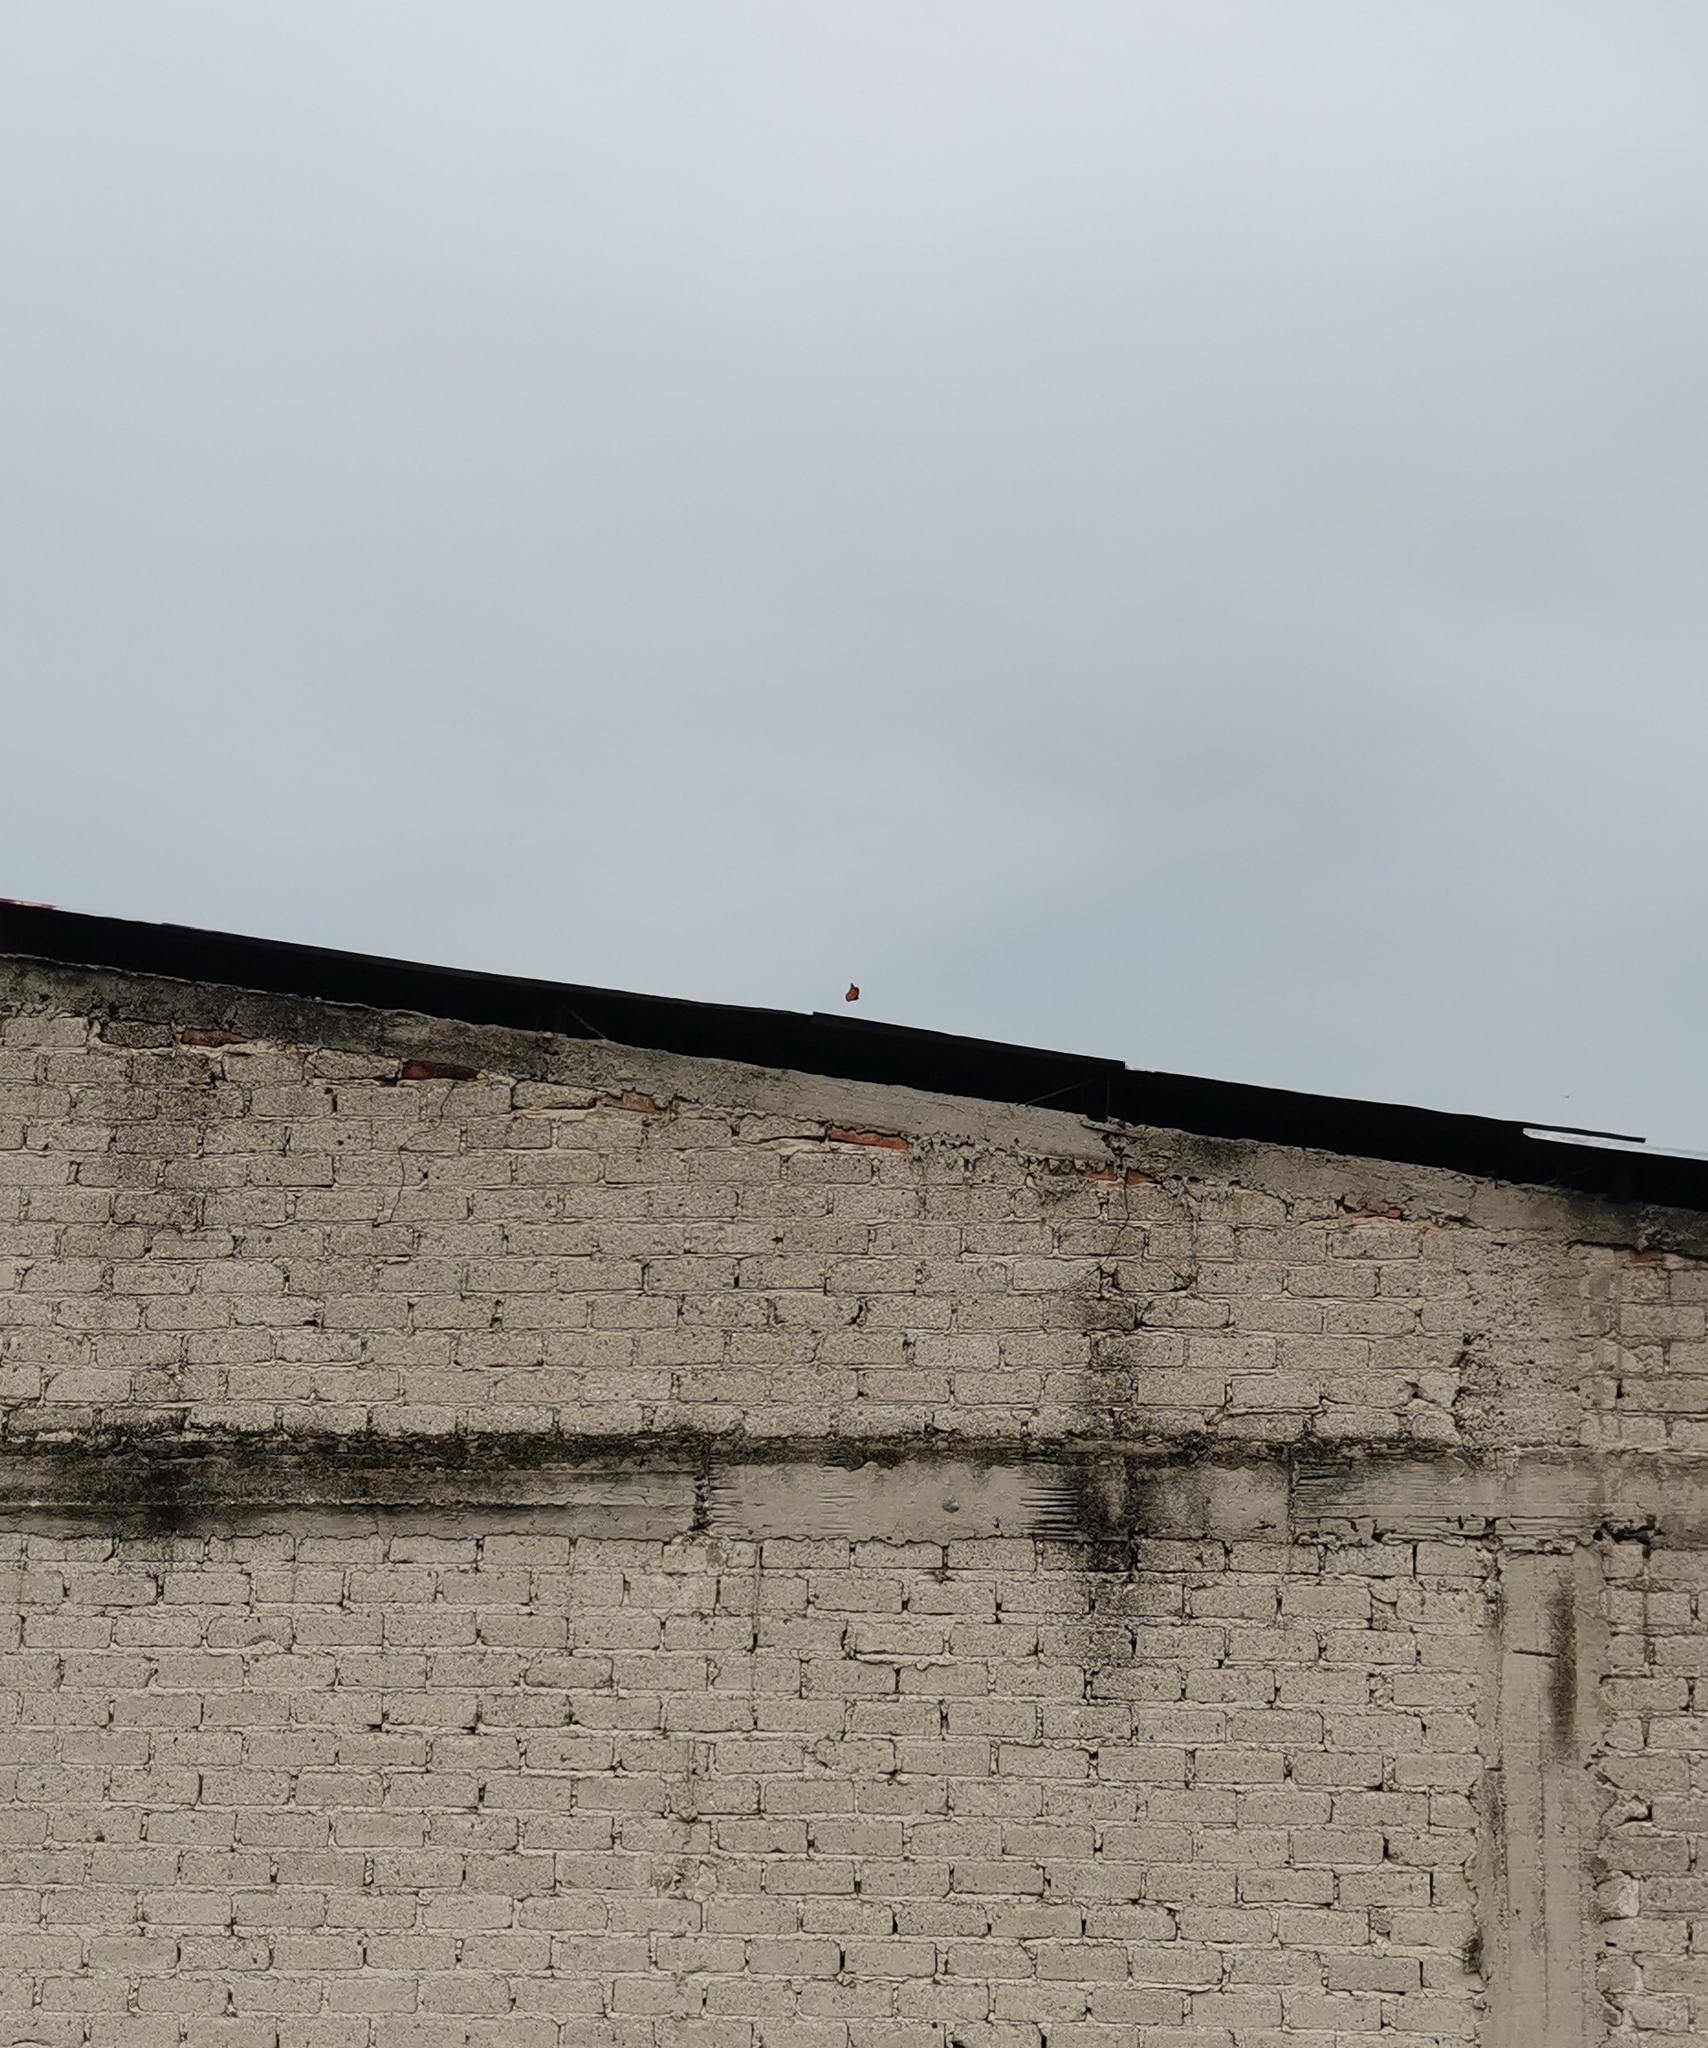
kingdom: Animalia
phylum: Arthropoda
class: Insecta
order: Lepidoptera
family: Nymphalidae
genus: Danaus
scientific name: Danaus plexippus
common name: Monarch
